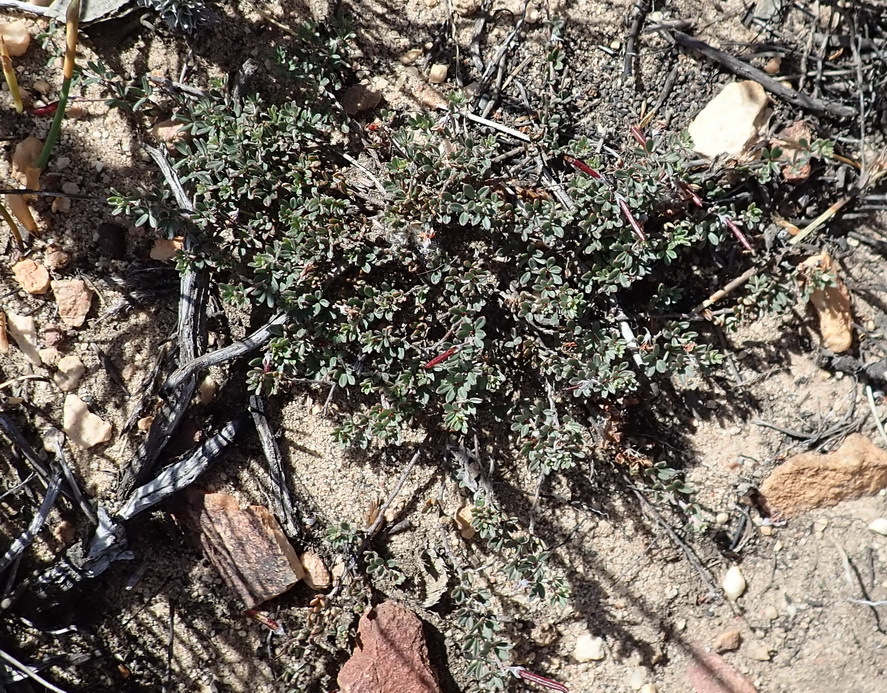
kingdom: Plantae
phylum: Tracheophyta
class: Magnoliopsida
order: Fabales
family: Fabaceae
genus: Indigofera
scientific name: Indigofera
